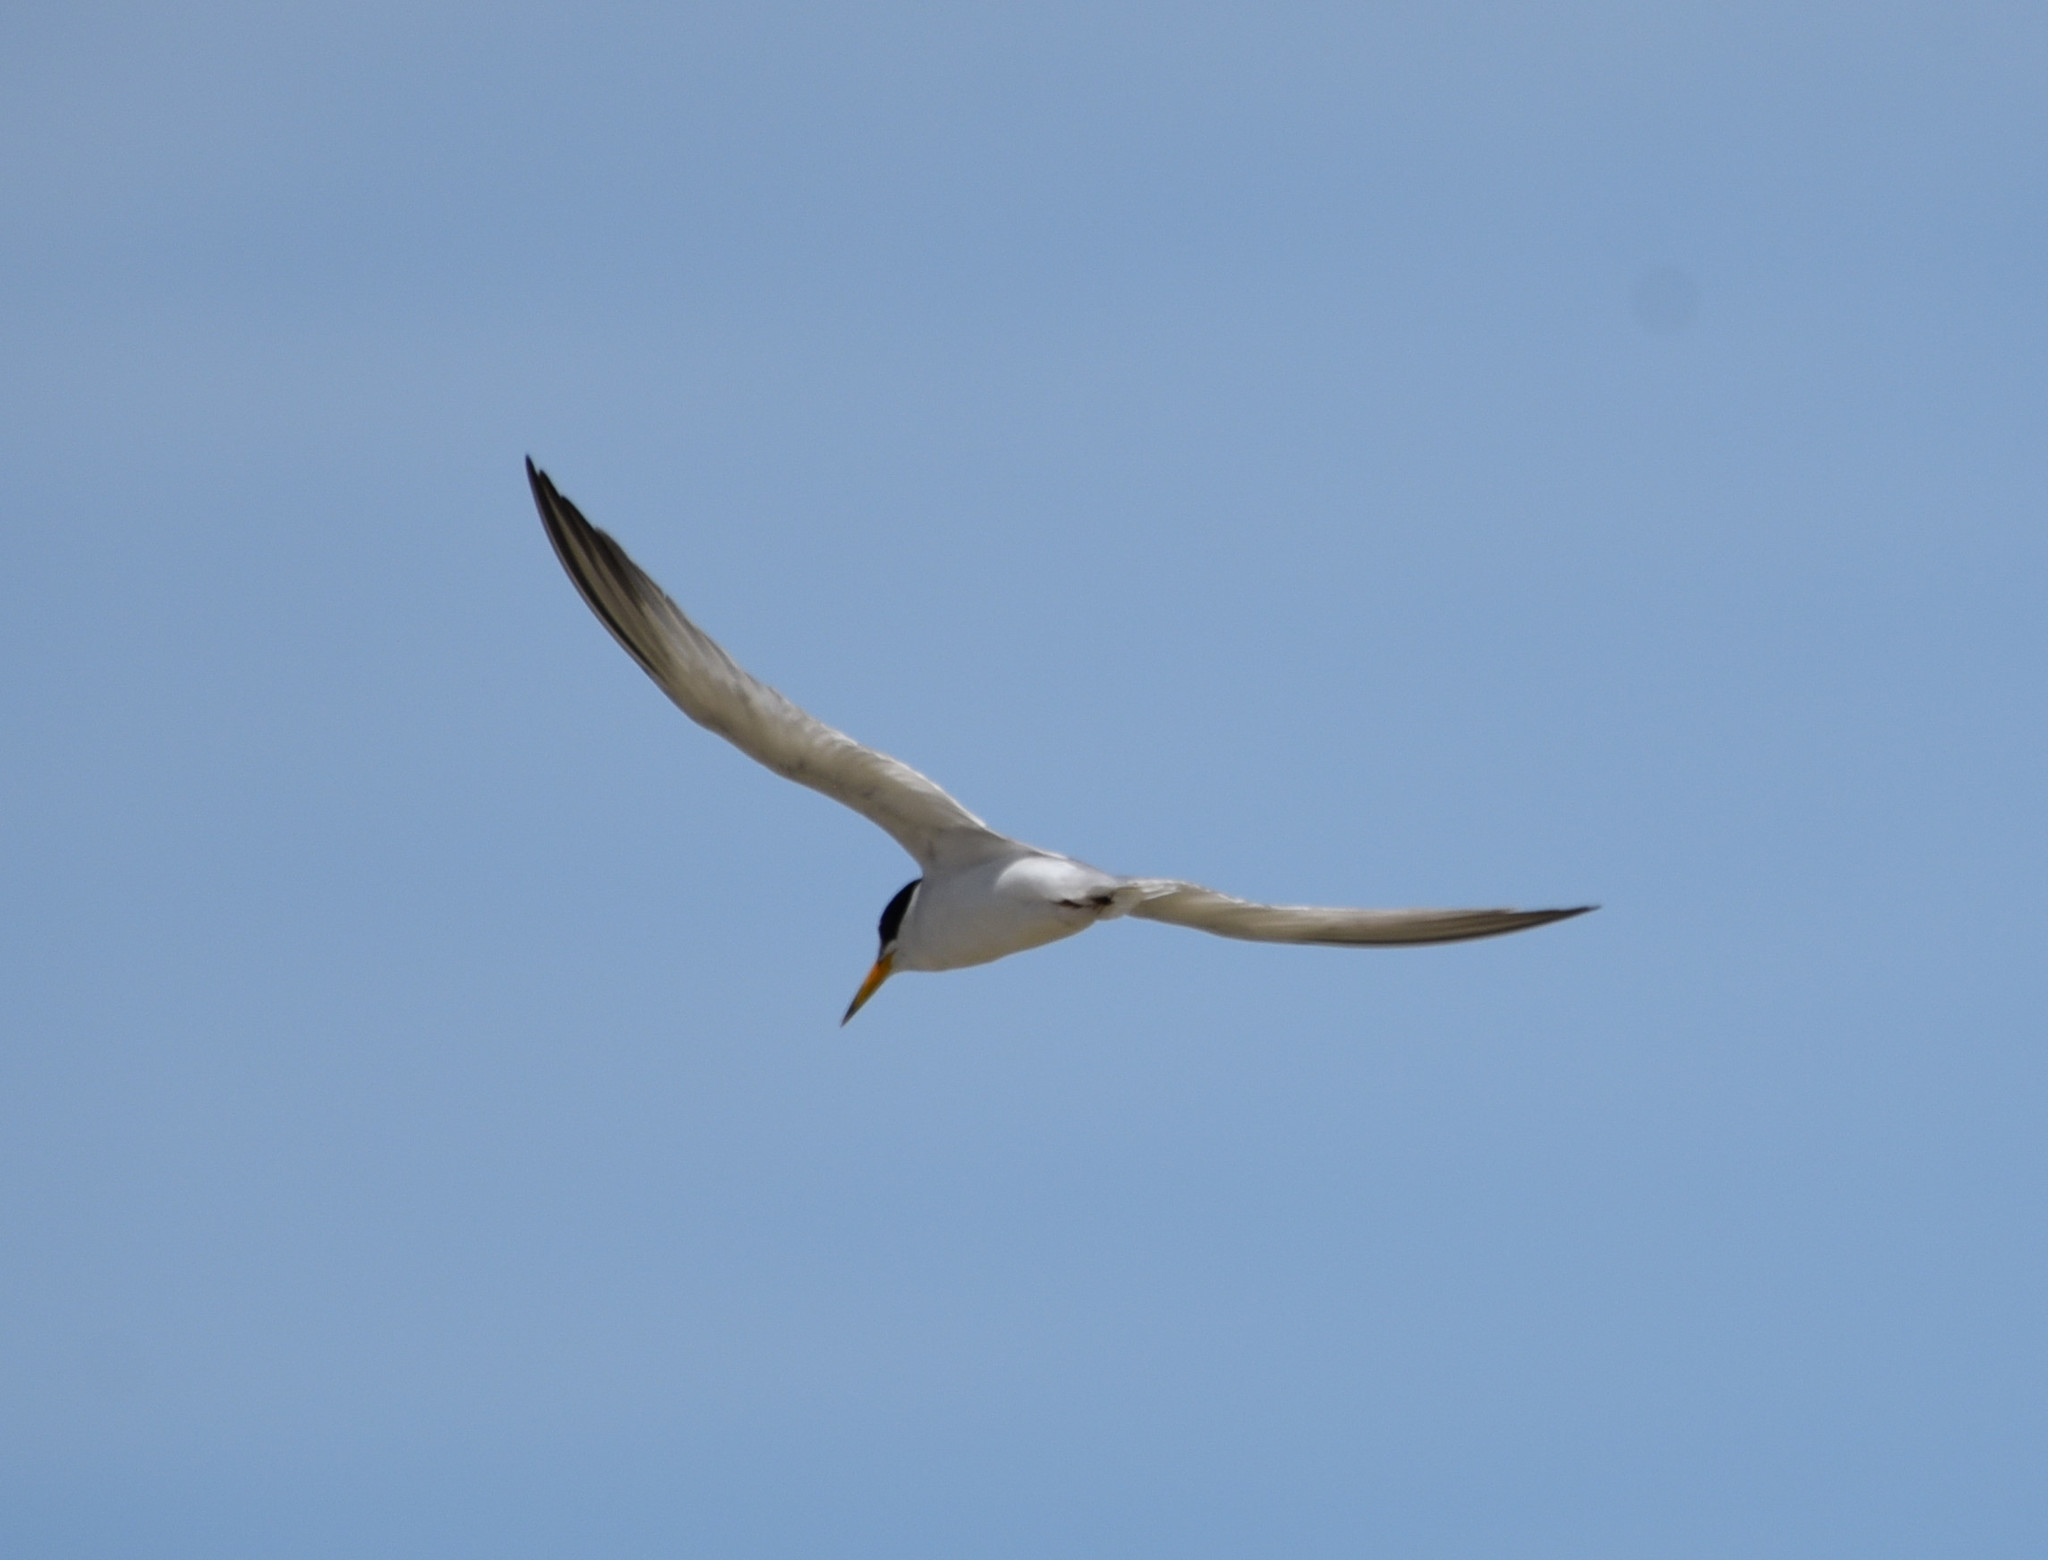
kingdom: Animalia
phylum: Chordata
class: Aves
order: Charadriiformes
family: Laridae
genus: Sternula
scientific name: Sternula antillarum
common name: Least tern
